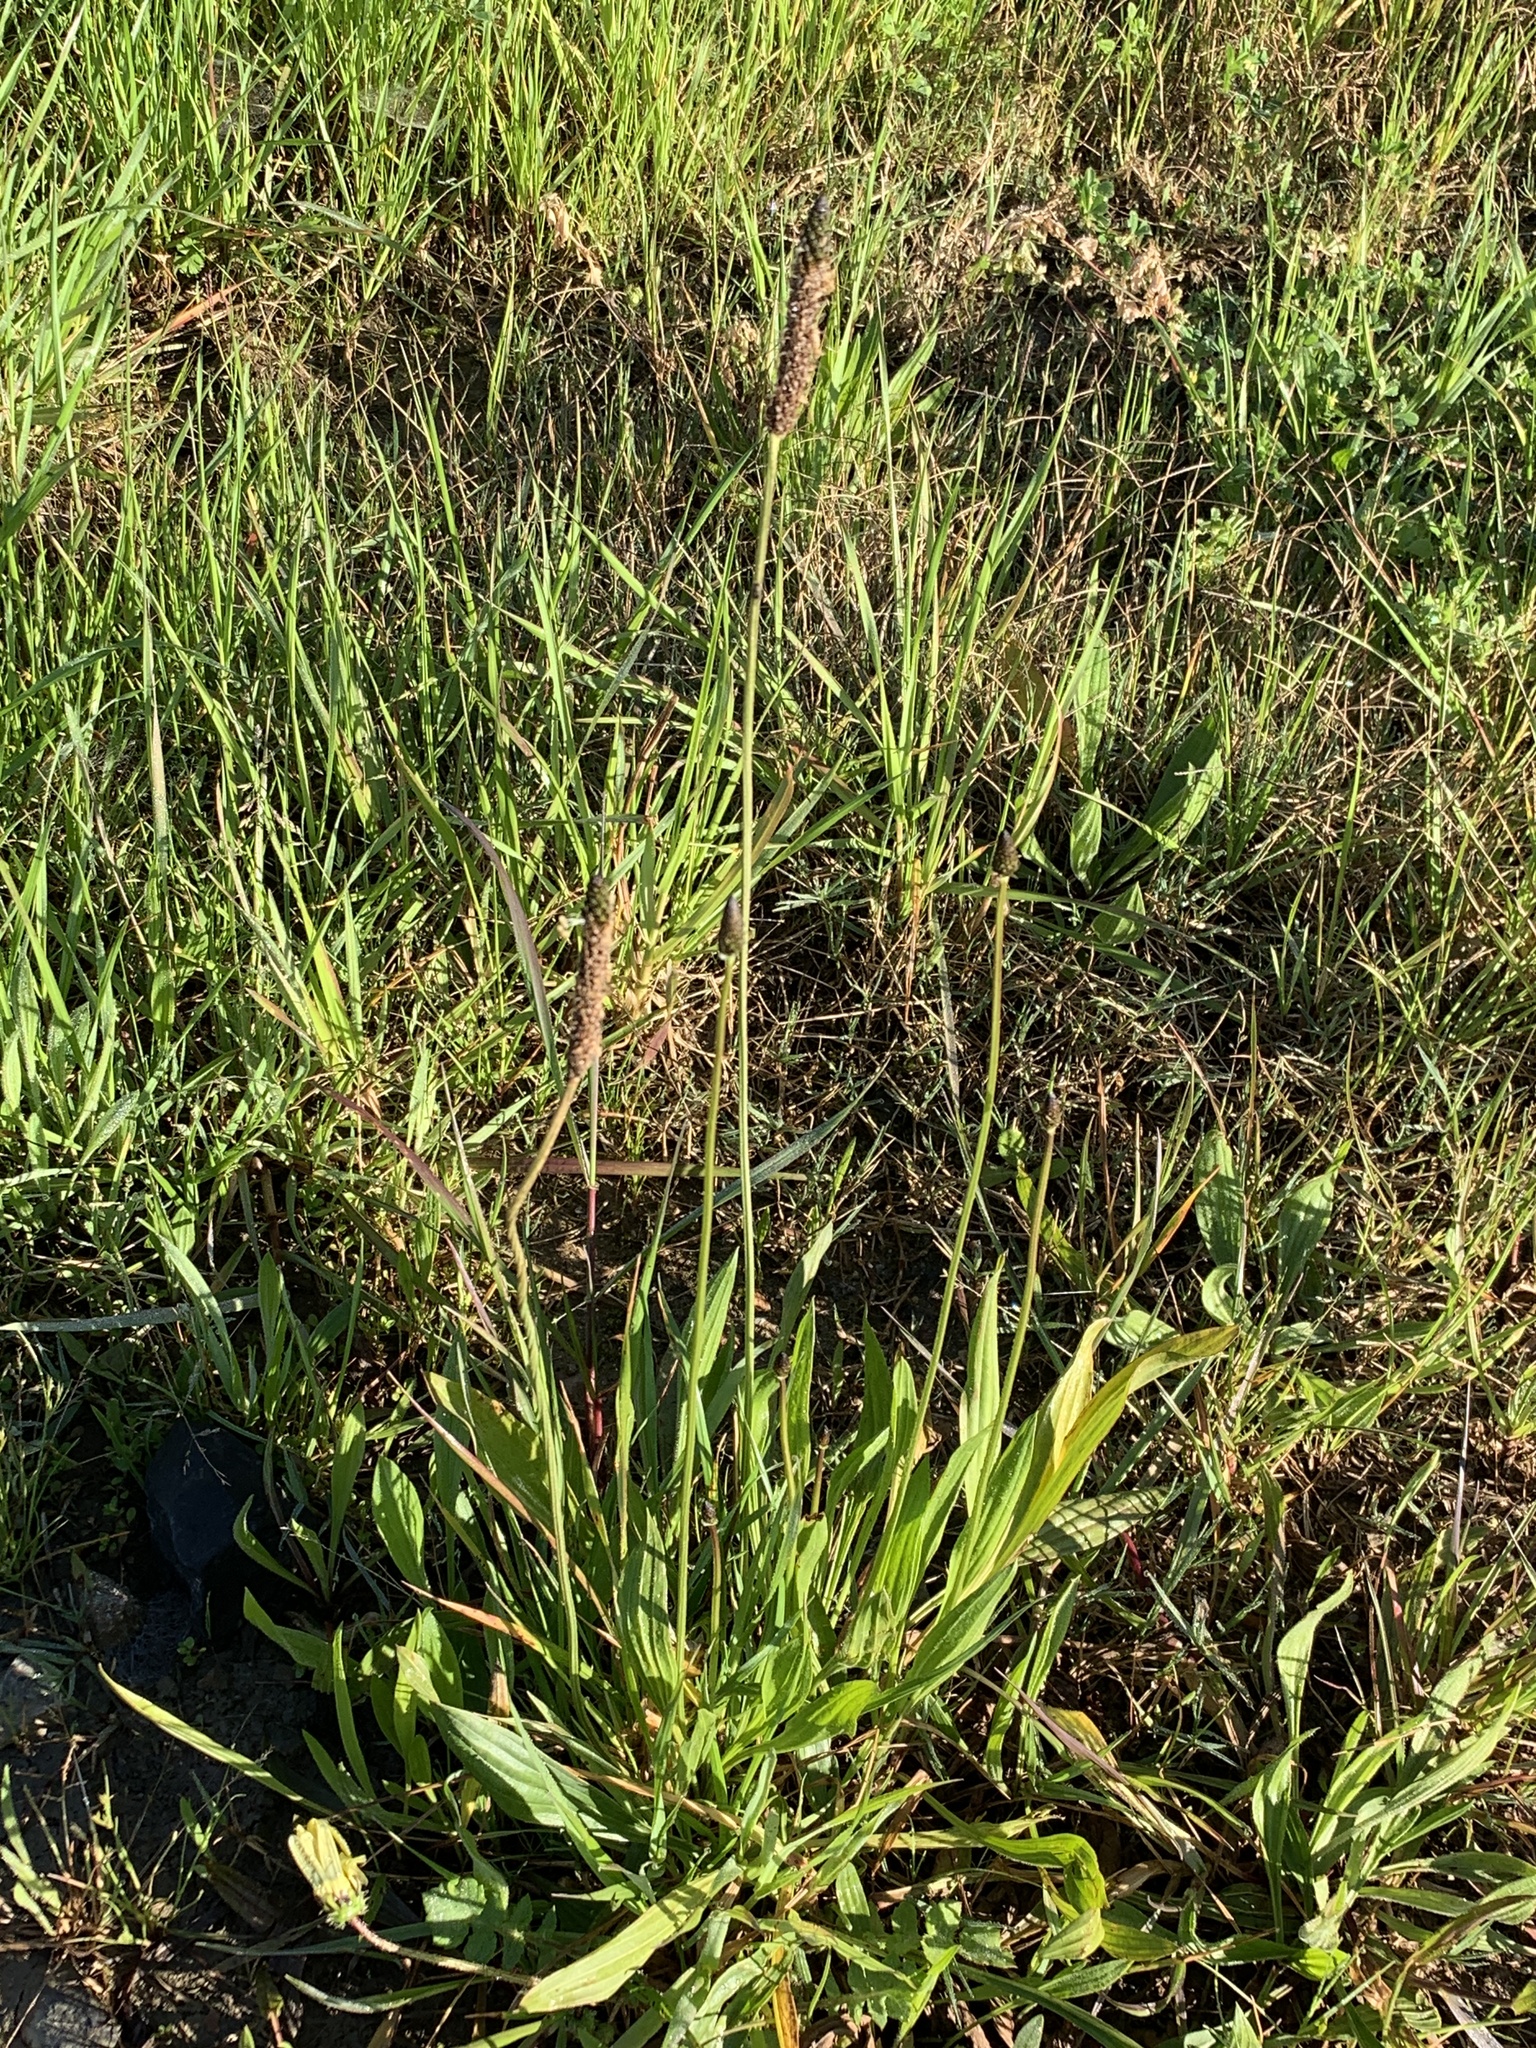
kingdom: Plantae
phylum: Tracheophyta
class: Magnoliopsida
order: Lamiales
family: Plantaginaceae
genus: Plantago
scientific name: Plantago lanceolata
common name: Ribwort plantain
